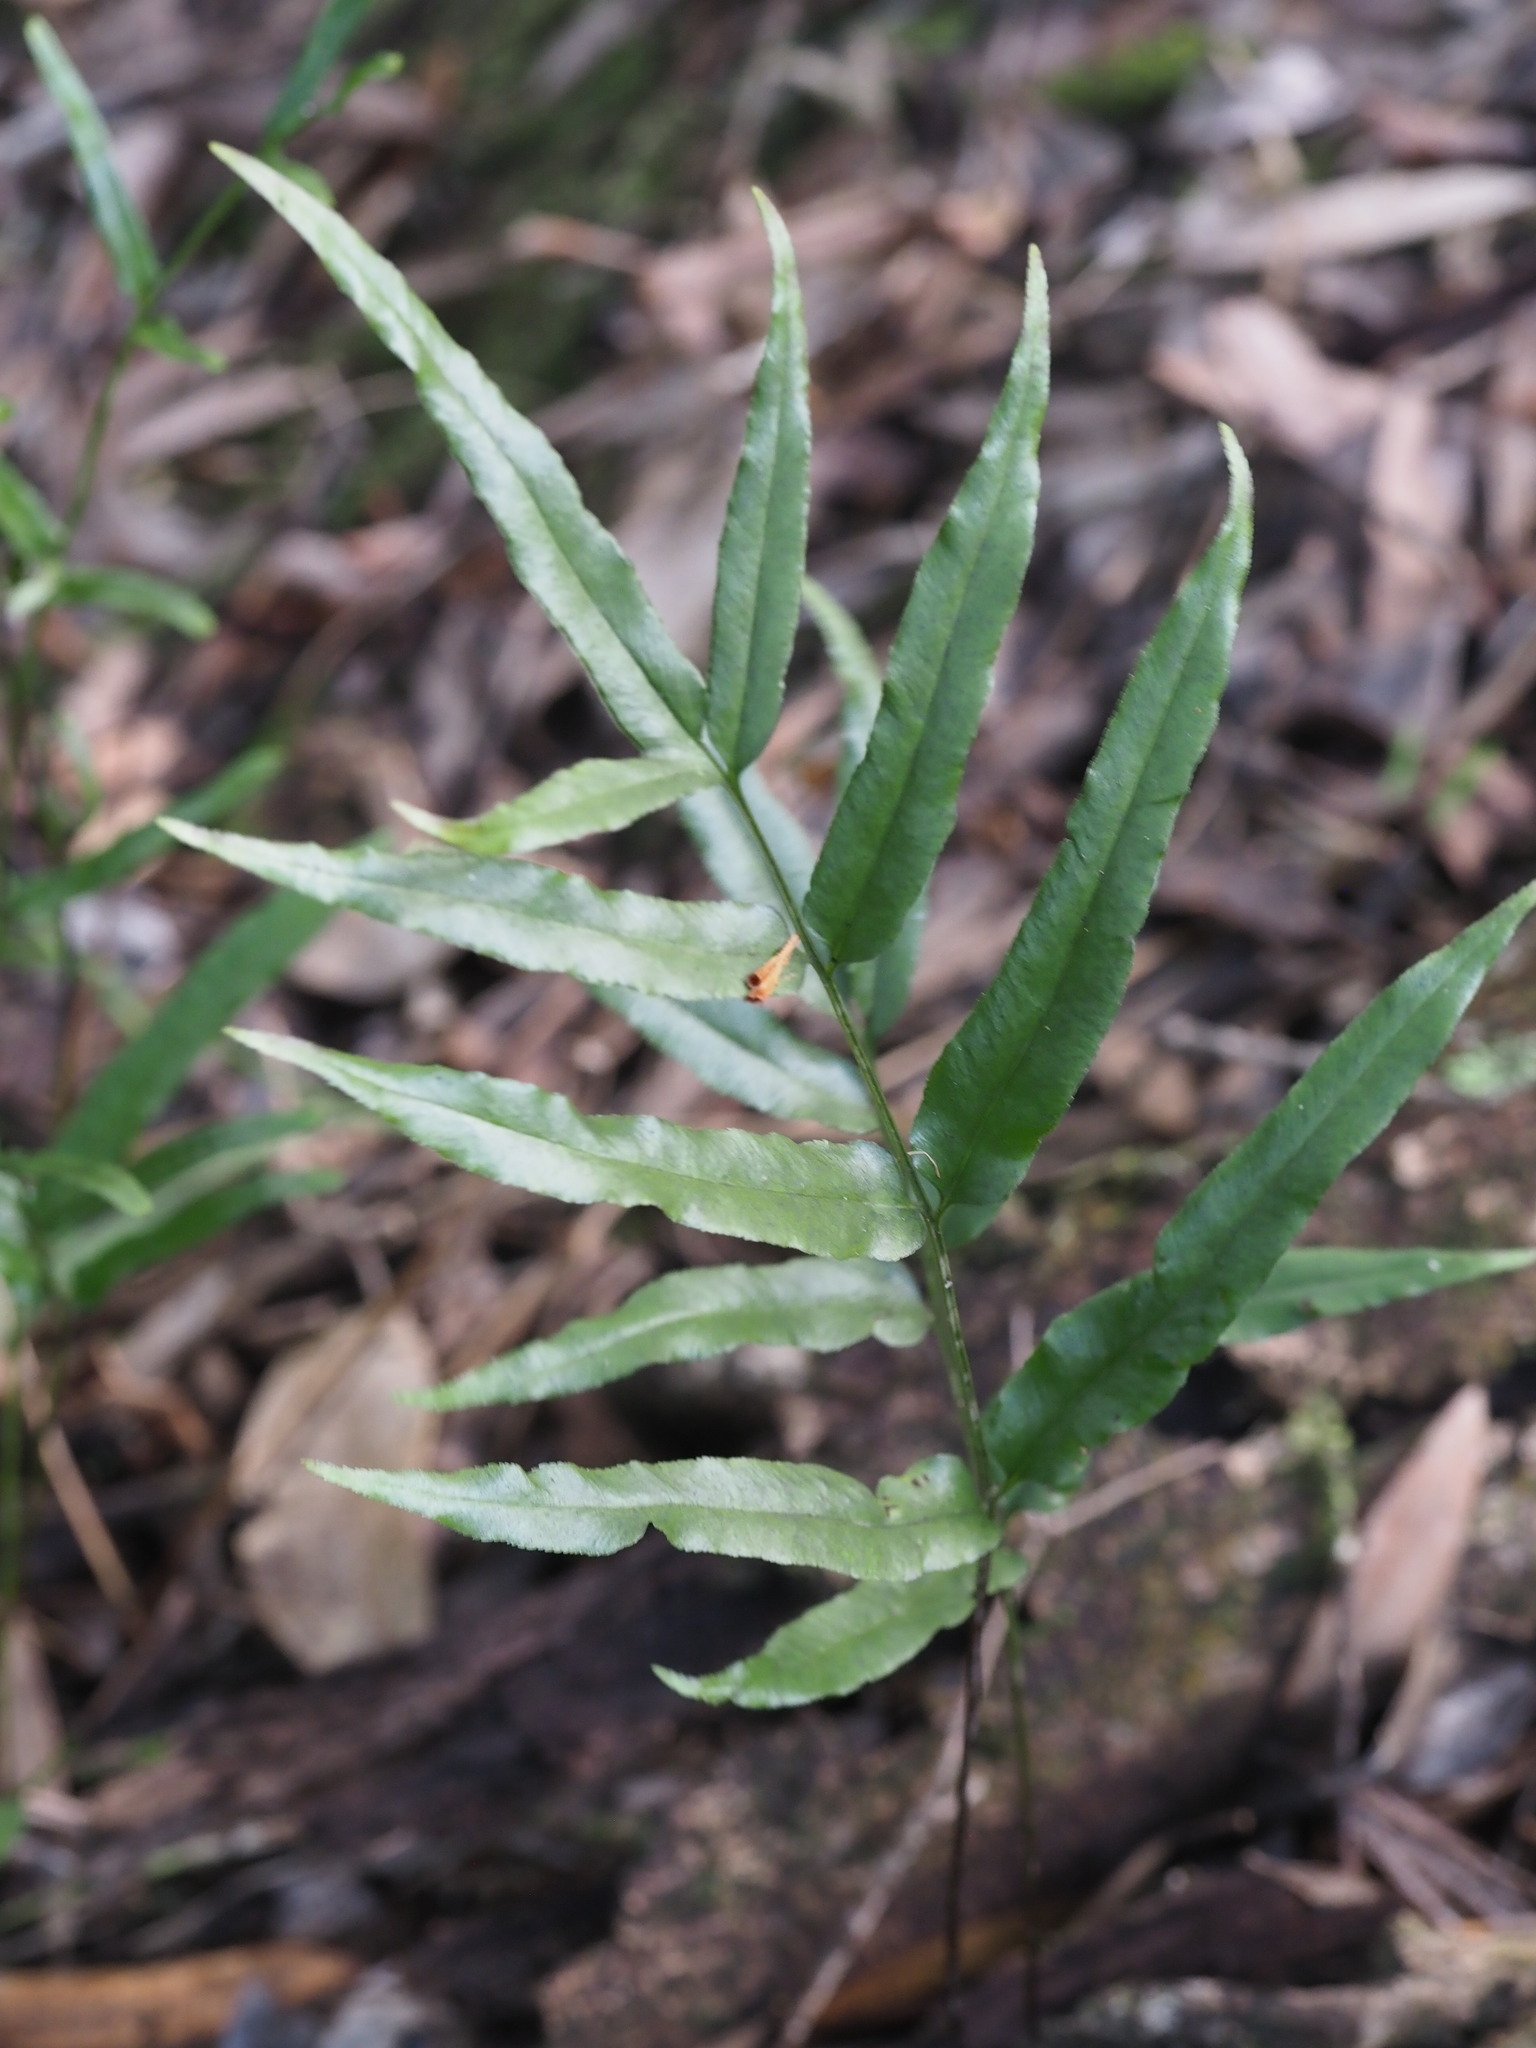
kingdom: Plantae
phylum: Tracheophyta
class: Polypodiopsida
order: Polypodiales
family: Lindsaeaceae
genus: Lindsaea
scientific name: Lindsaea ensifolia
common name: Graceful necklace fern
